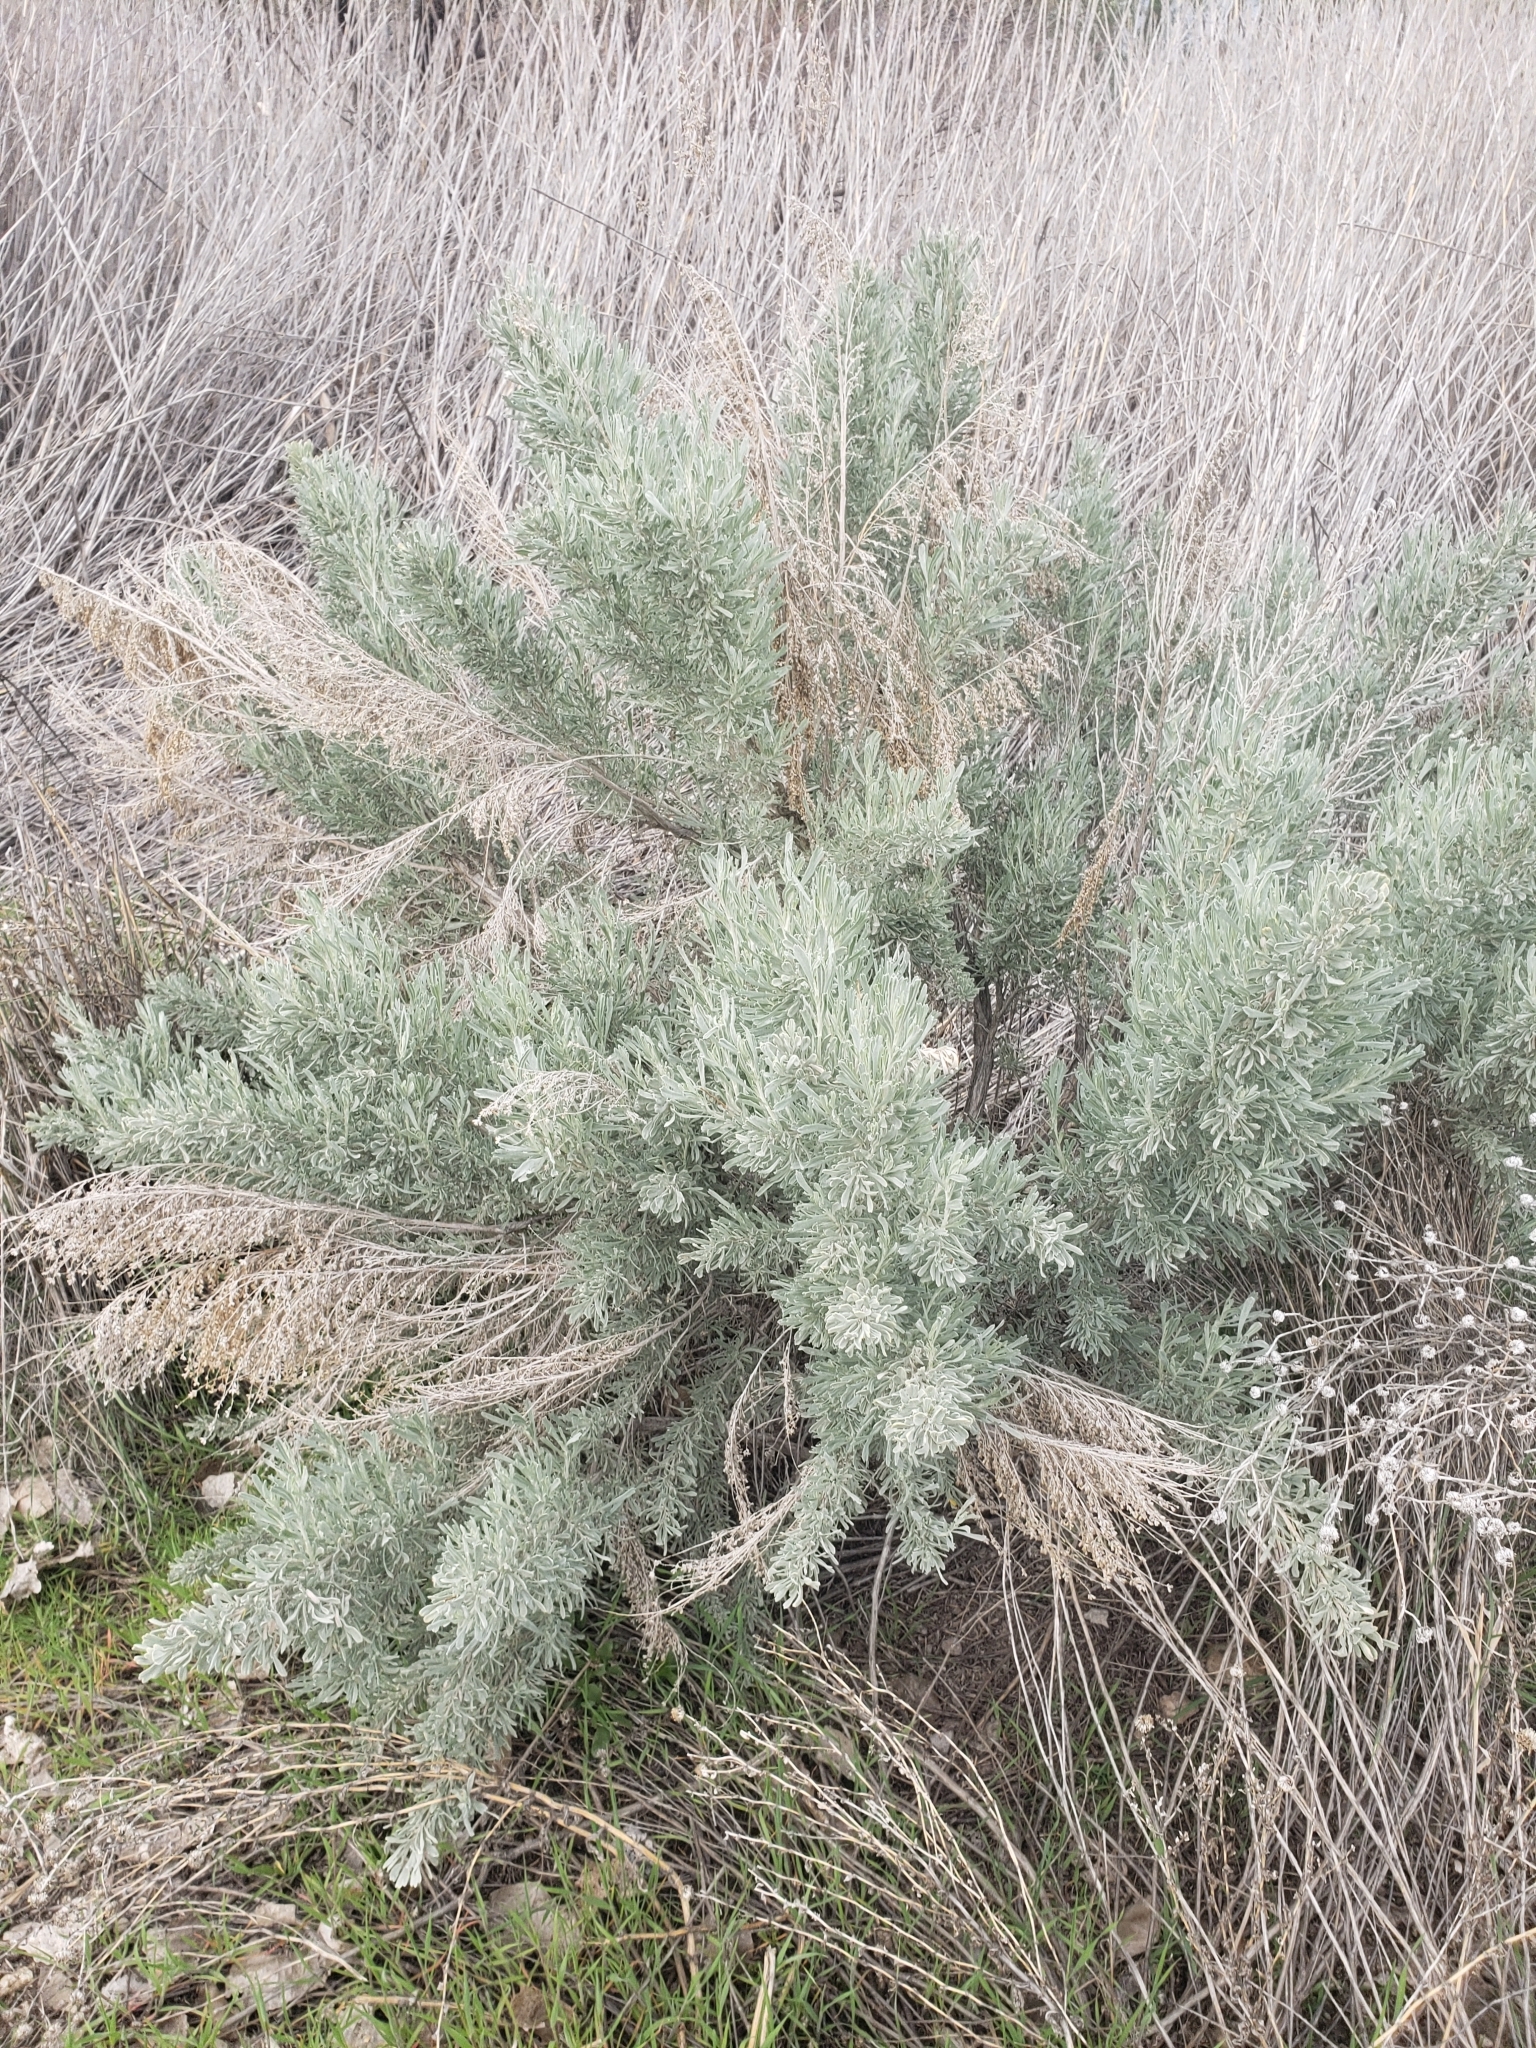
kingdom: Plantae
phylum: Tracheophyta
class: Magnoliopsida
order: Asterales
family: Asteraceae
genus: Artemisia
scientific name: Artemisia tridentata
